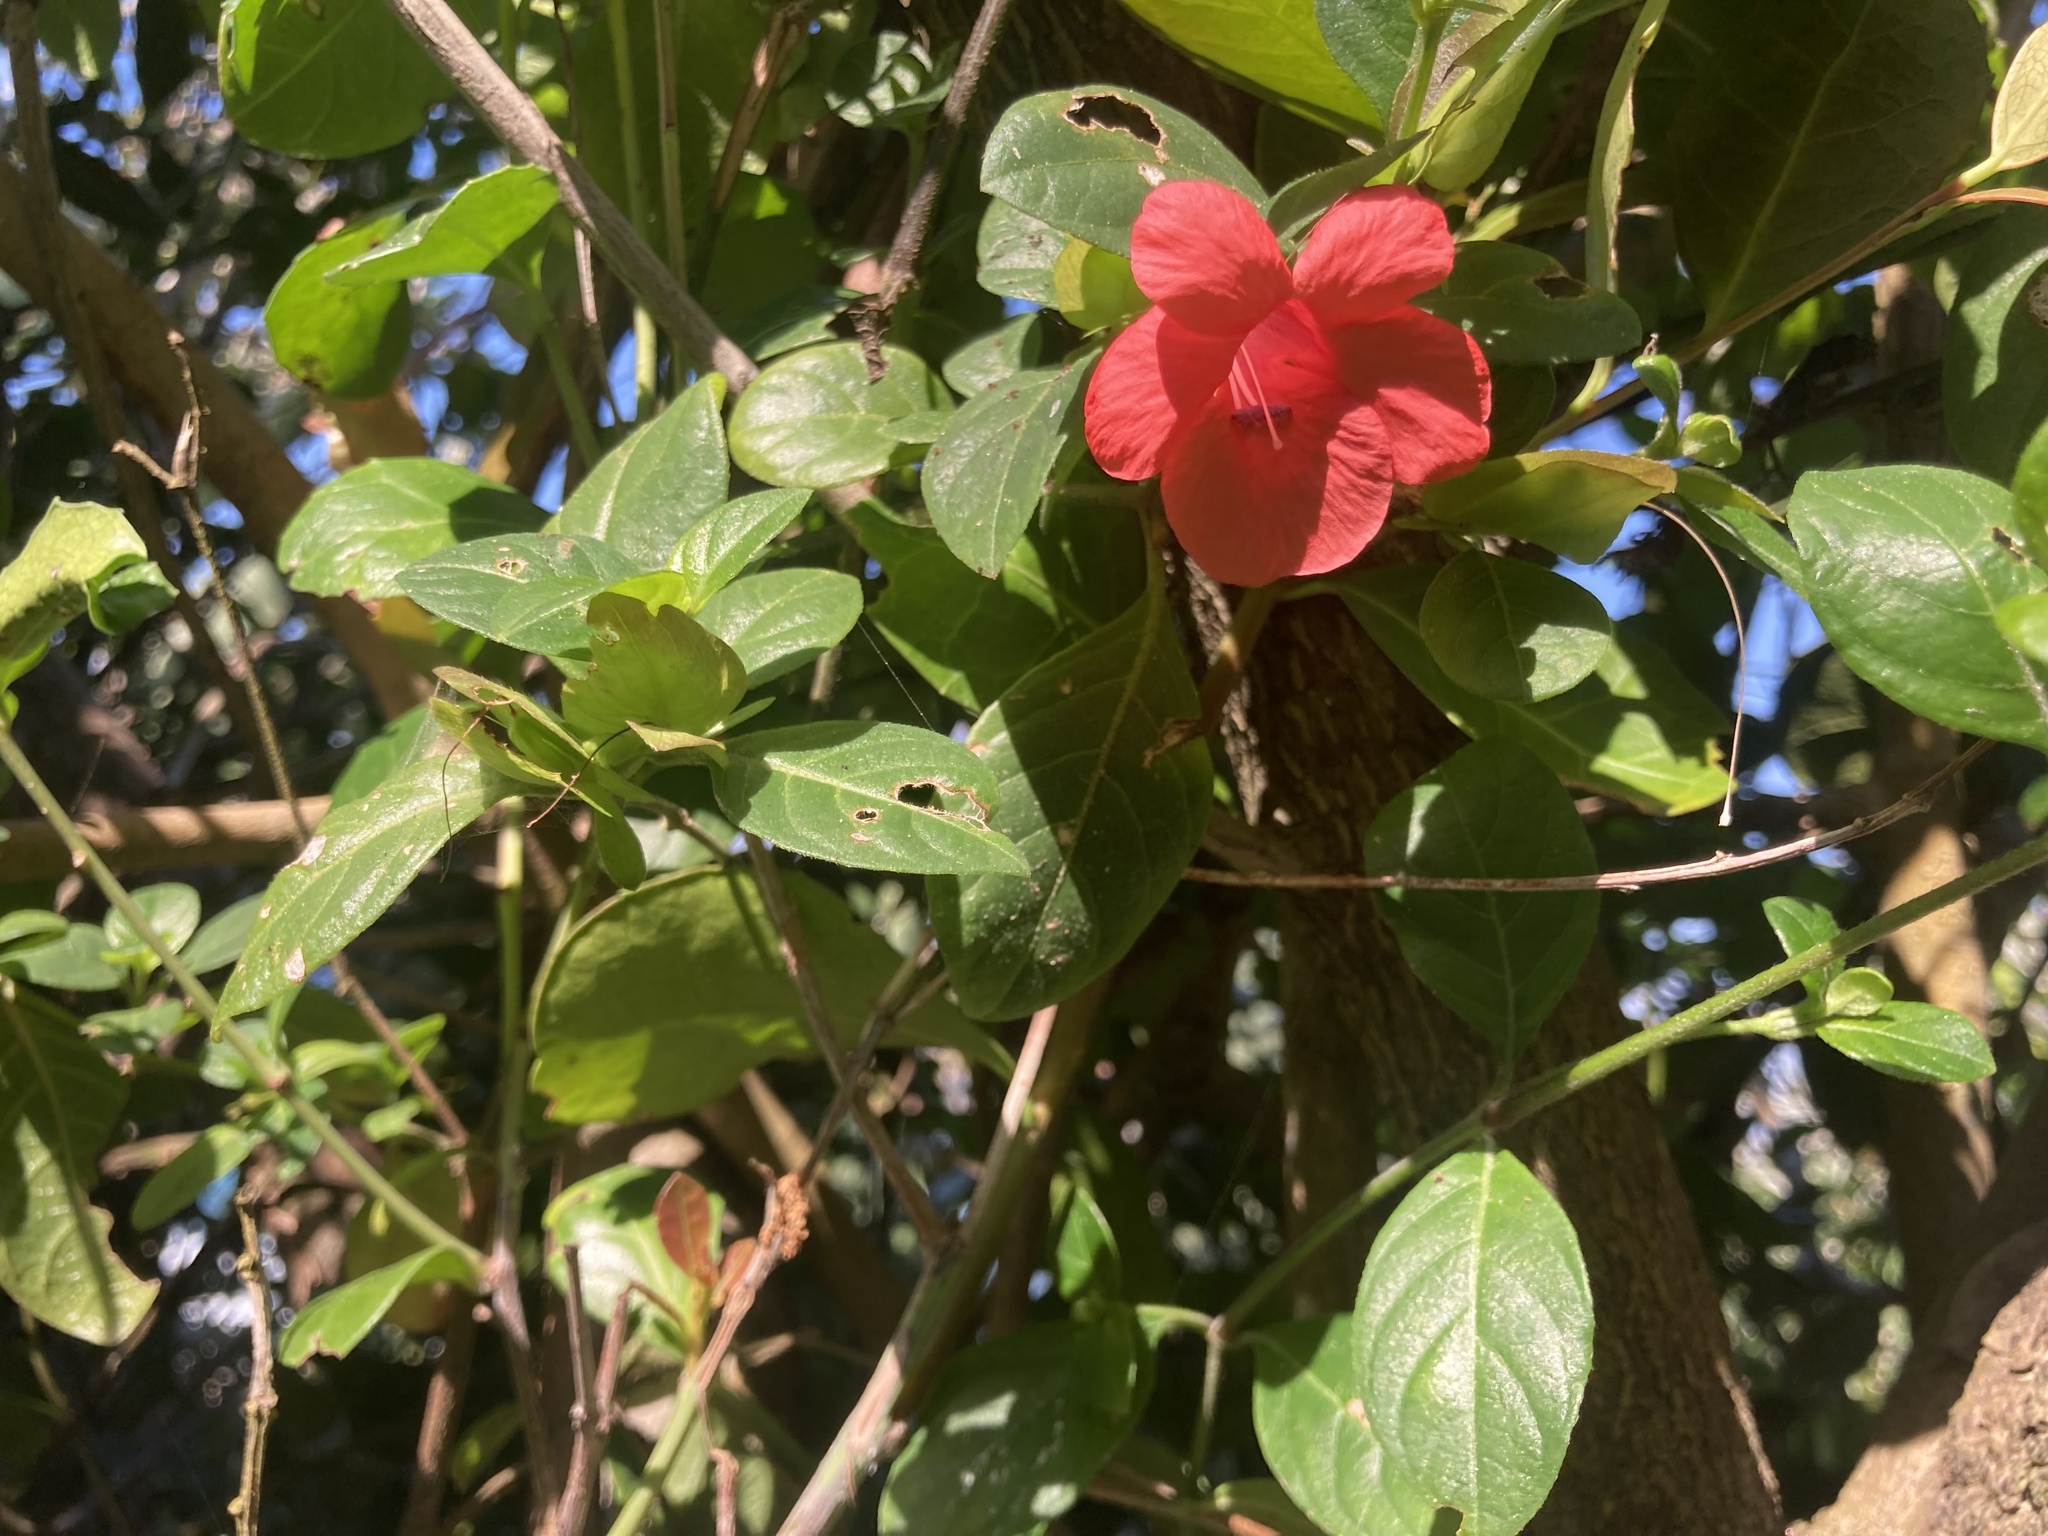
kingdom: Plantae
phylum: Tracheophyta
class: Magnoliopsida
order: Lamiales
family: Acanthaceae
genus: Barleria
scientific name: Barleria repens
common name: Pink-ruellia
